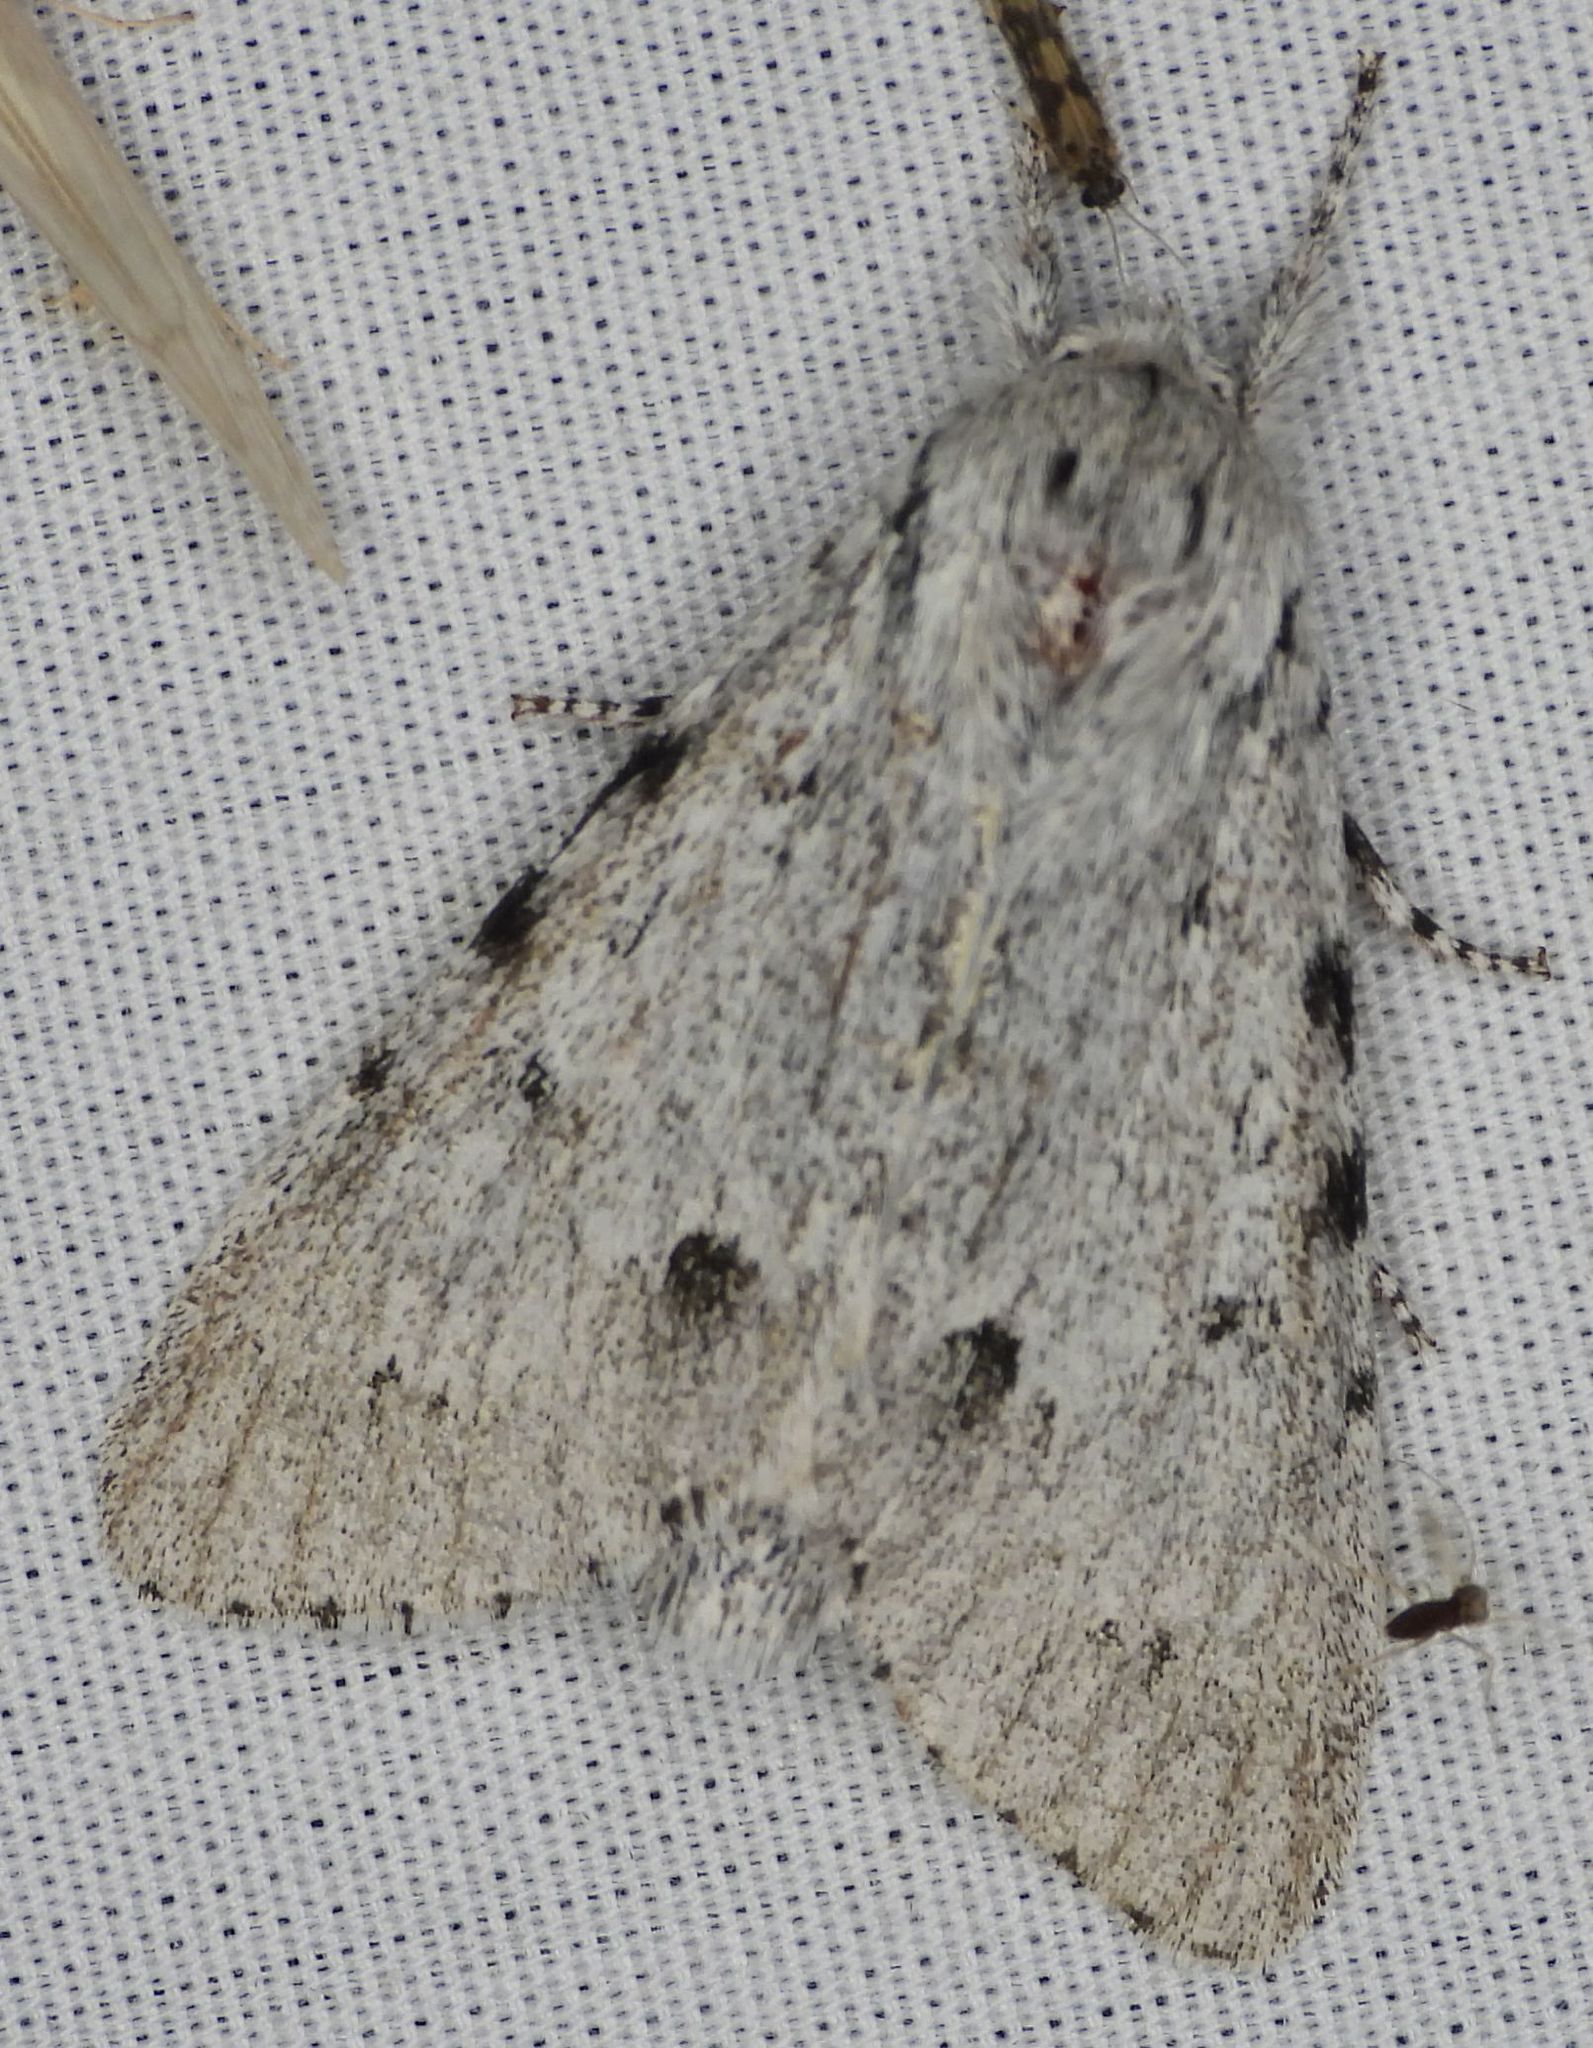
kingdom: Animalia
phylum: Arthropoda
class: Insecta
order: Lepidoptera
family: Noctuidae
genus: Acronicta
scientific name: Acronicta lepusculina
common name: Cottonwood dagger
